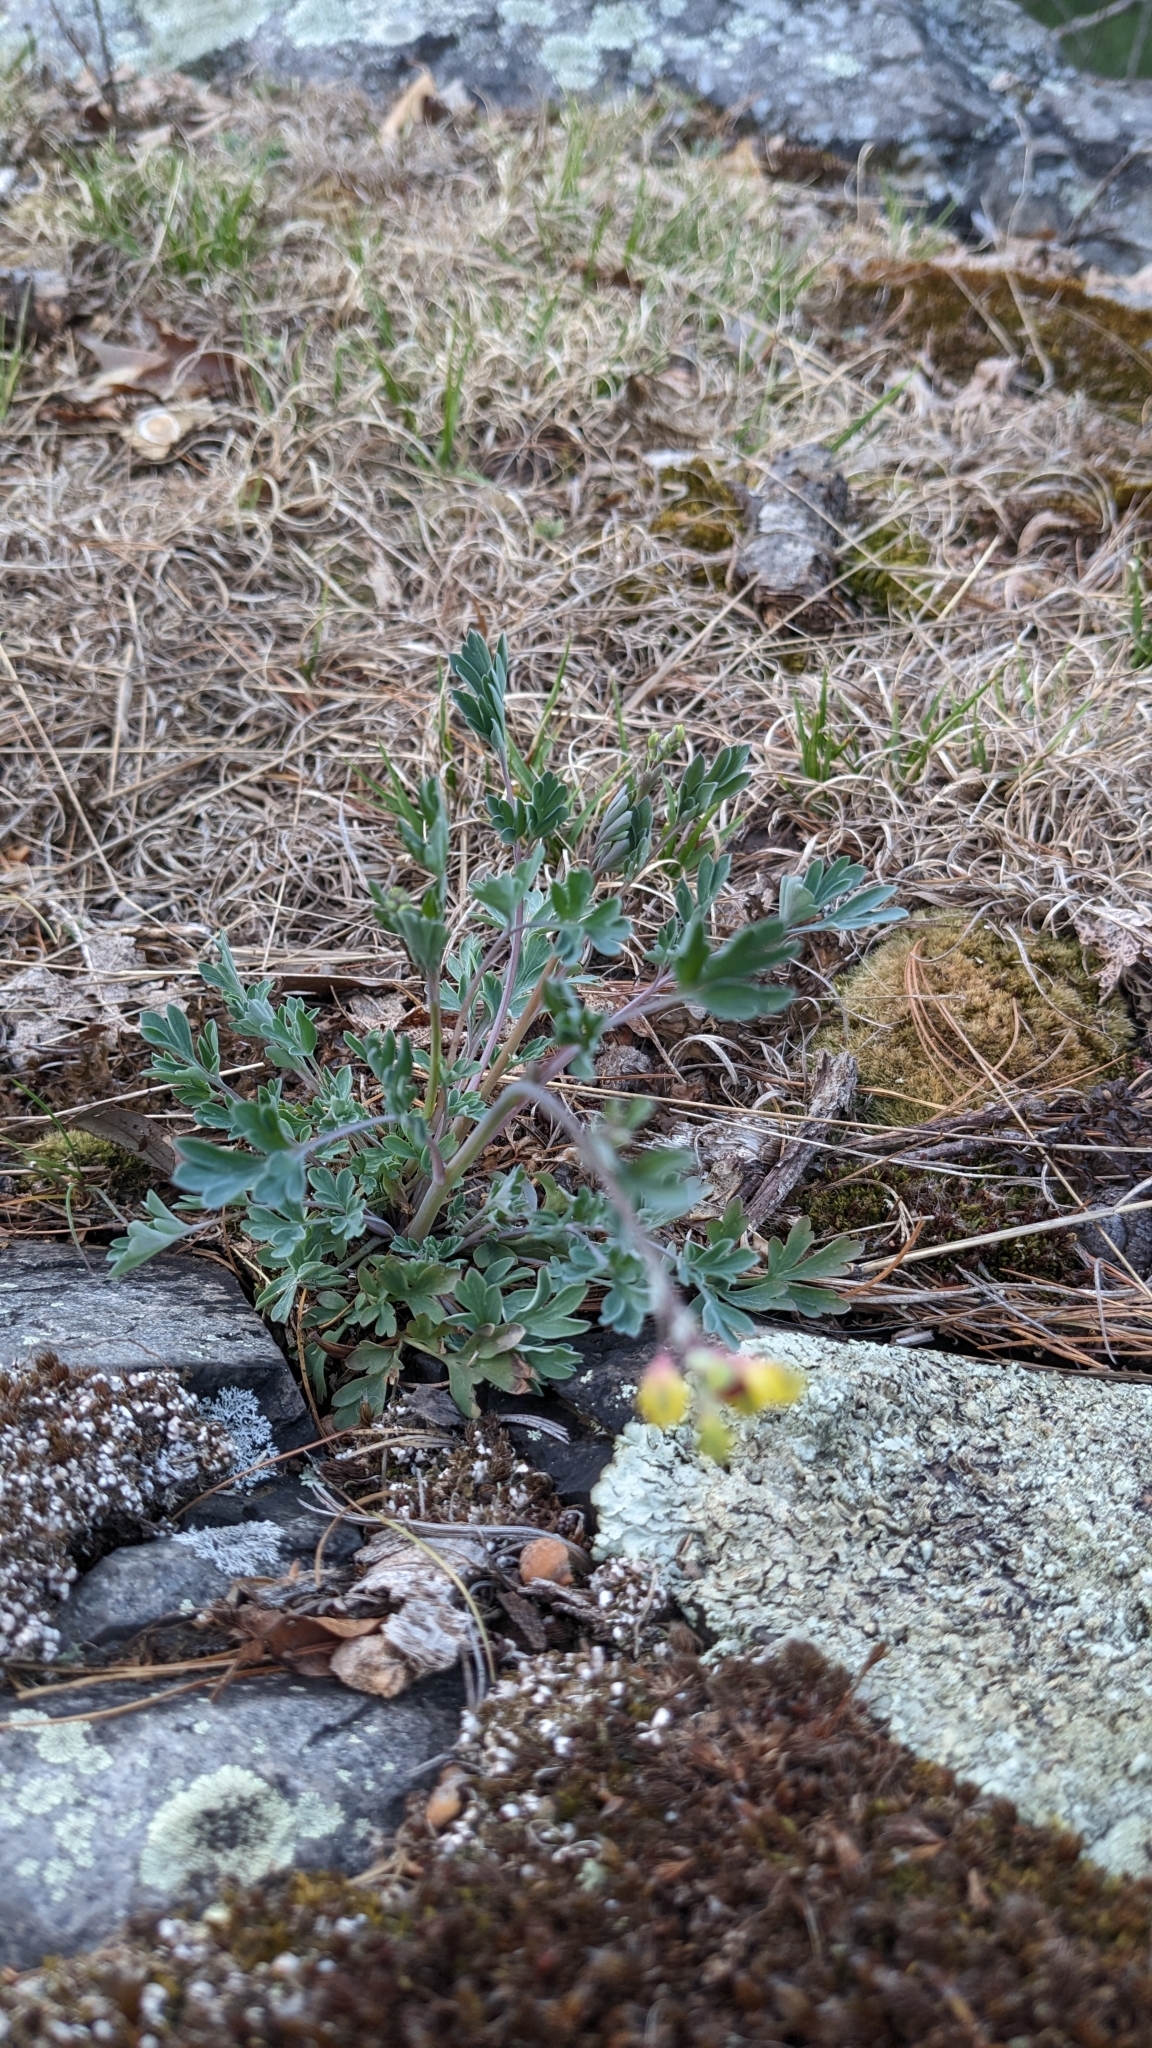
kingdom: Plantae
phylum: Tracheophyta
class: Magnoliopsida
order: Ranunculales
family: Papaveraceae
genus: Capnoides
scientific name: Capnoides sempervirens
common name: Rock harlequin
